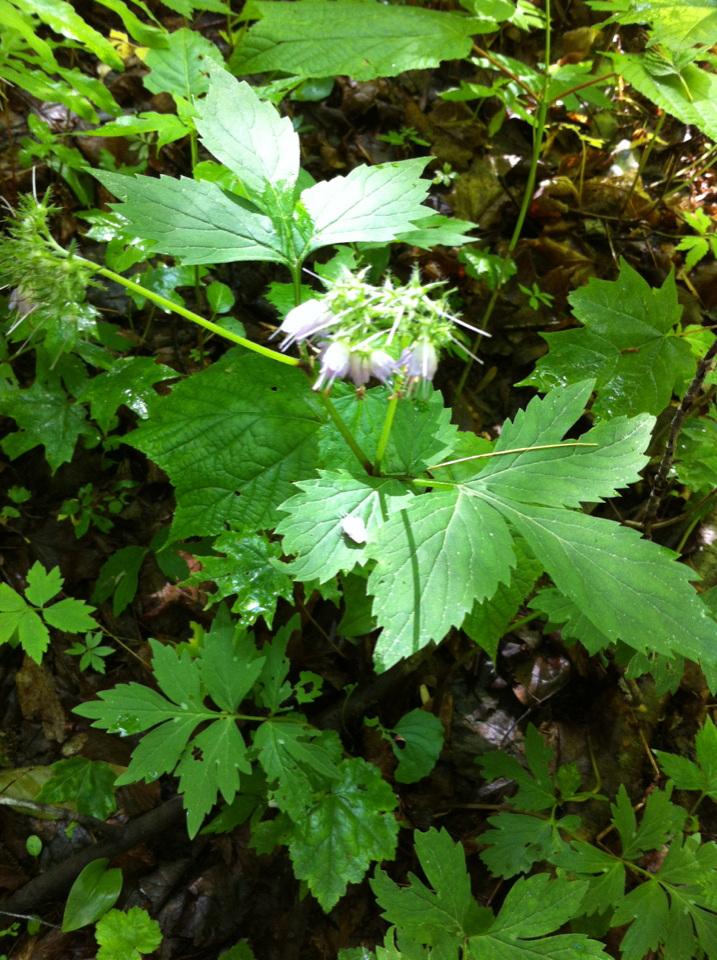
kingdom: Plantae
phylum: Tracheophyta
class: Magnoliopsida
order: Boraginales
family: Hydrophyllaceae
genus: Hydrophyllum
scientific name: Hydrophyllum virginianum
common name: Virginia waterleaf
